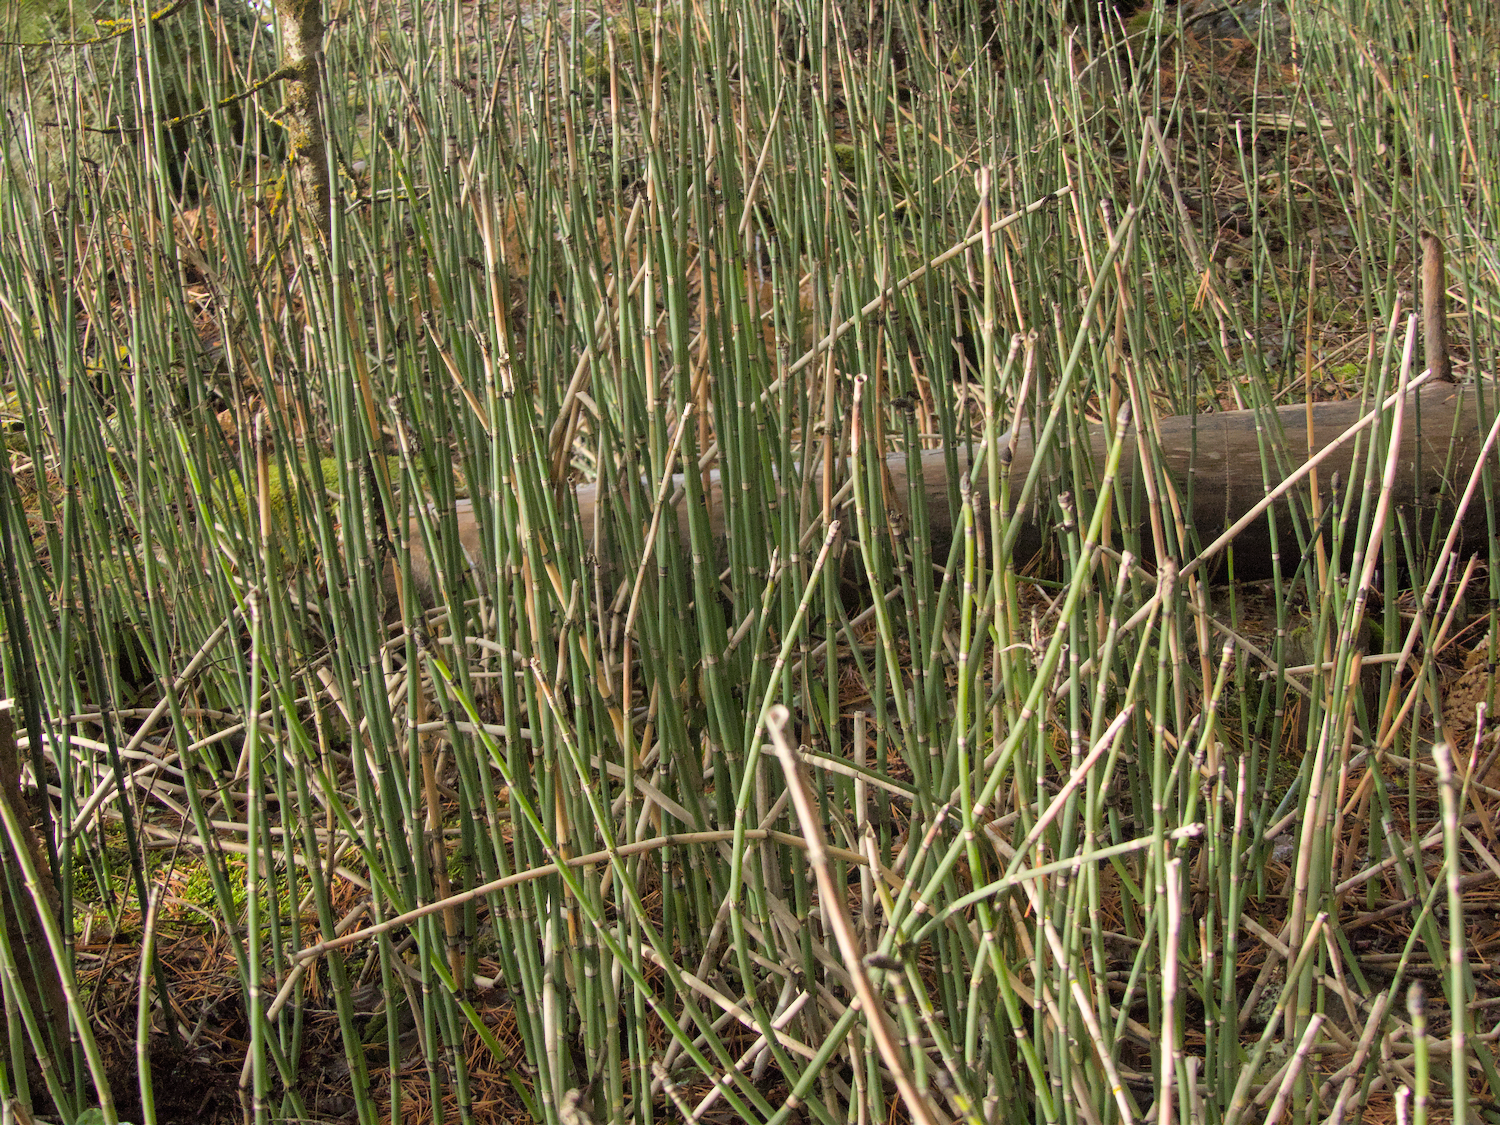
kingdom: Plantae
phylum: Tracheophyta
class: Polypodiopsida
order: Equisetales
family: Equisetaceae
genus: Equisetum
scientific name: Equisetum hyemale
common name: Rough horsetail
